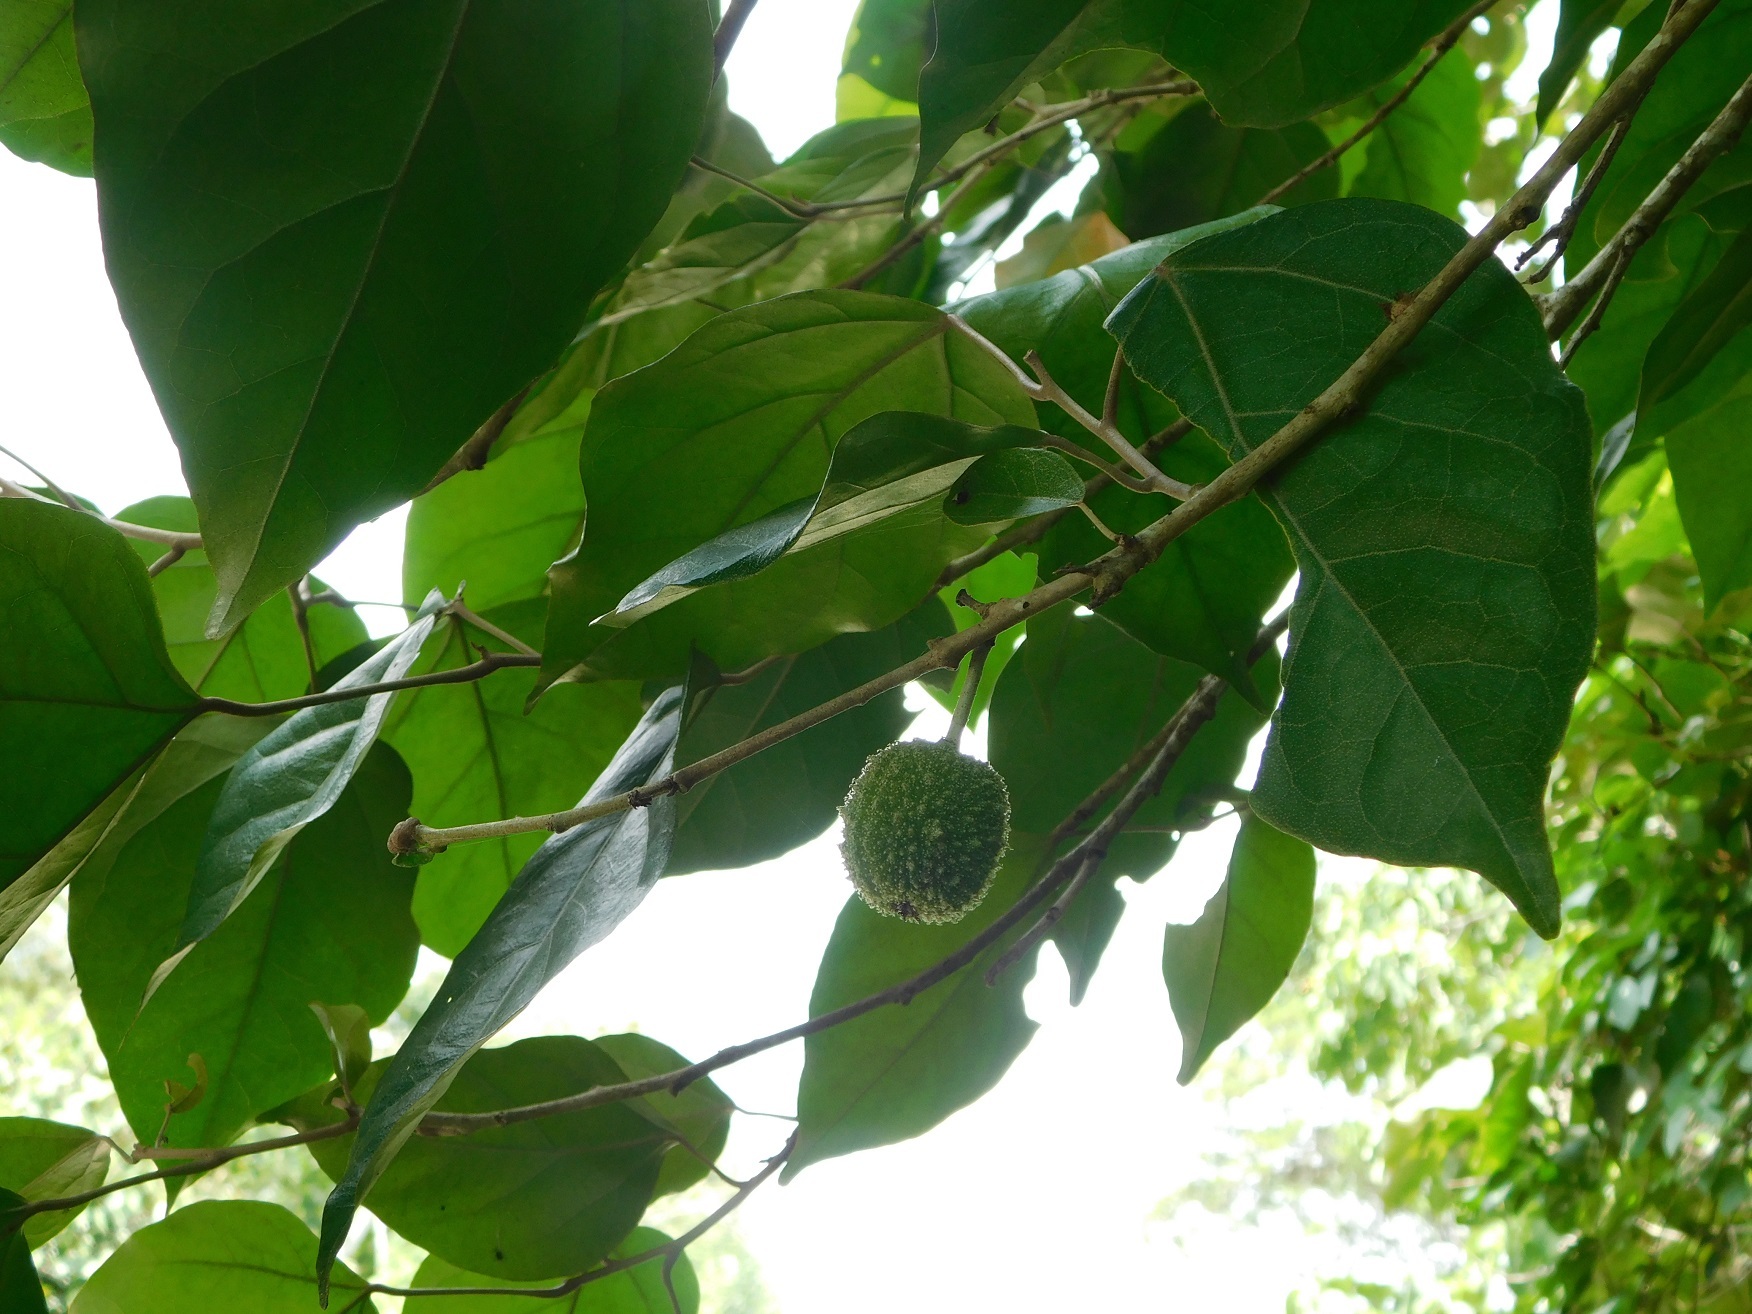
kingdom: Plantae
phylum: Tracheophyta
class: Magnoliopsida
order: Malpighiales
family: Euphorbiaceae
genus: Croton
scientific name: Croton reflexifolius
